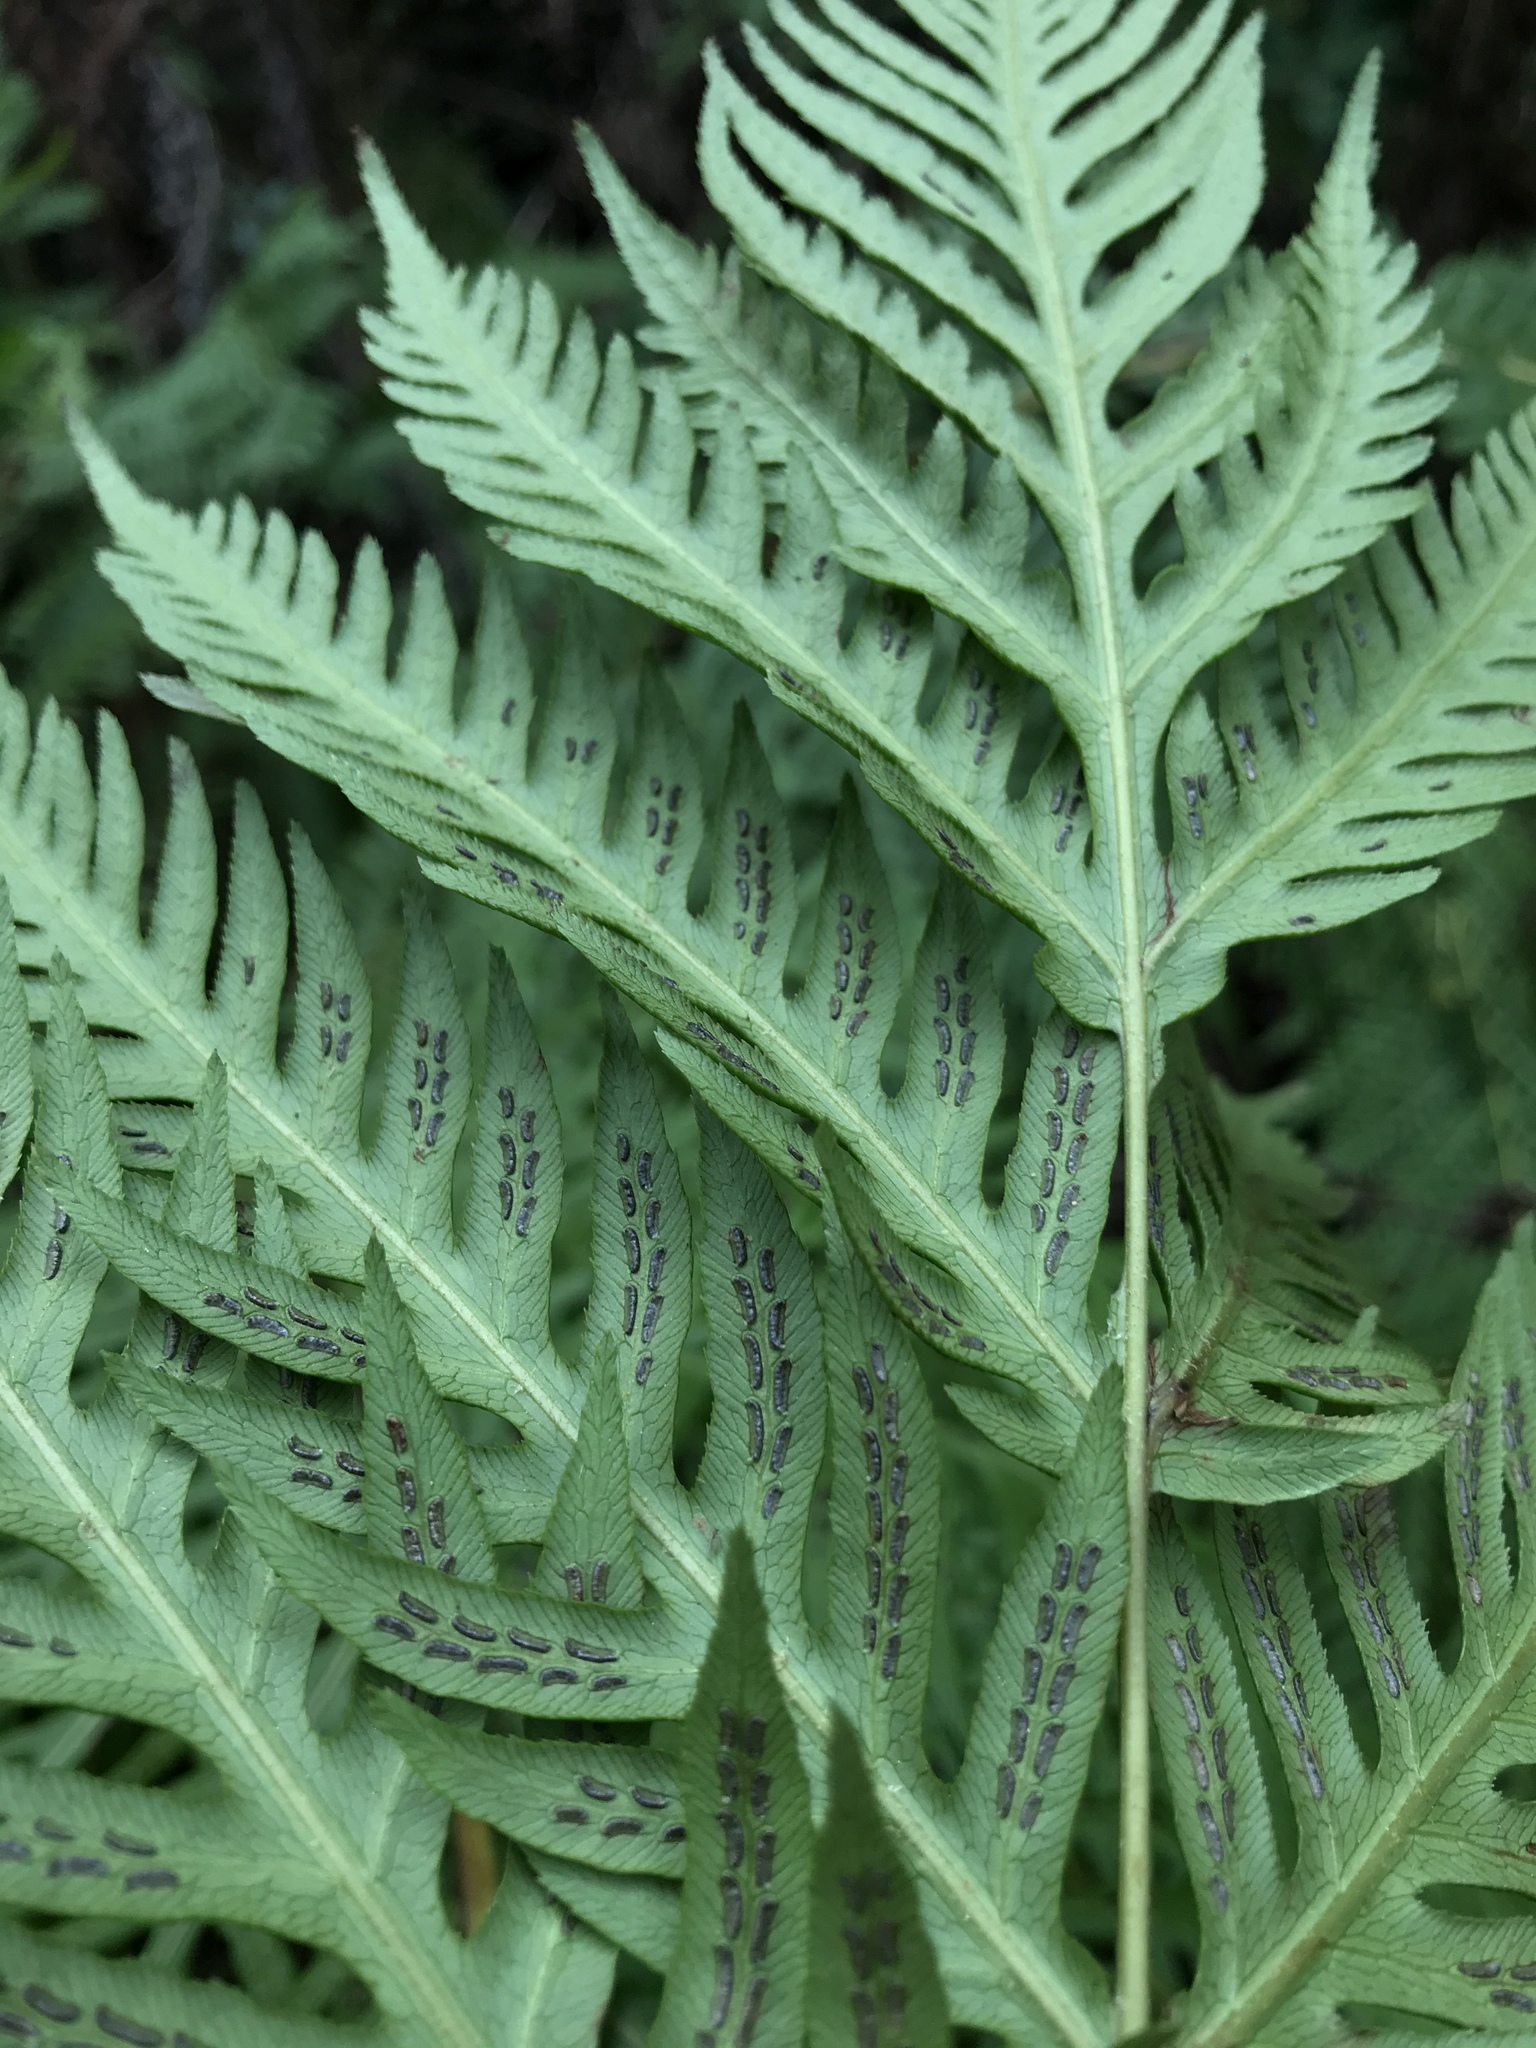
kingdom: Plantae
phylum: Tracheophyta
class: Polypodiopsida
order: Polypodiales
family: Blechnaceae
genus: Woodwardia
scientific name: Woodwardia fimbriata
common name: Giant chain fern
